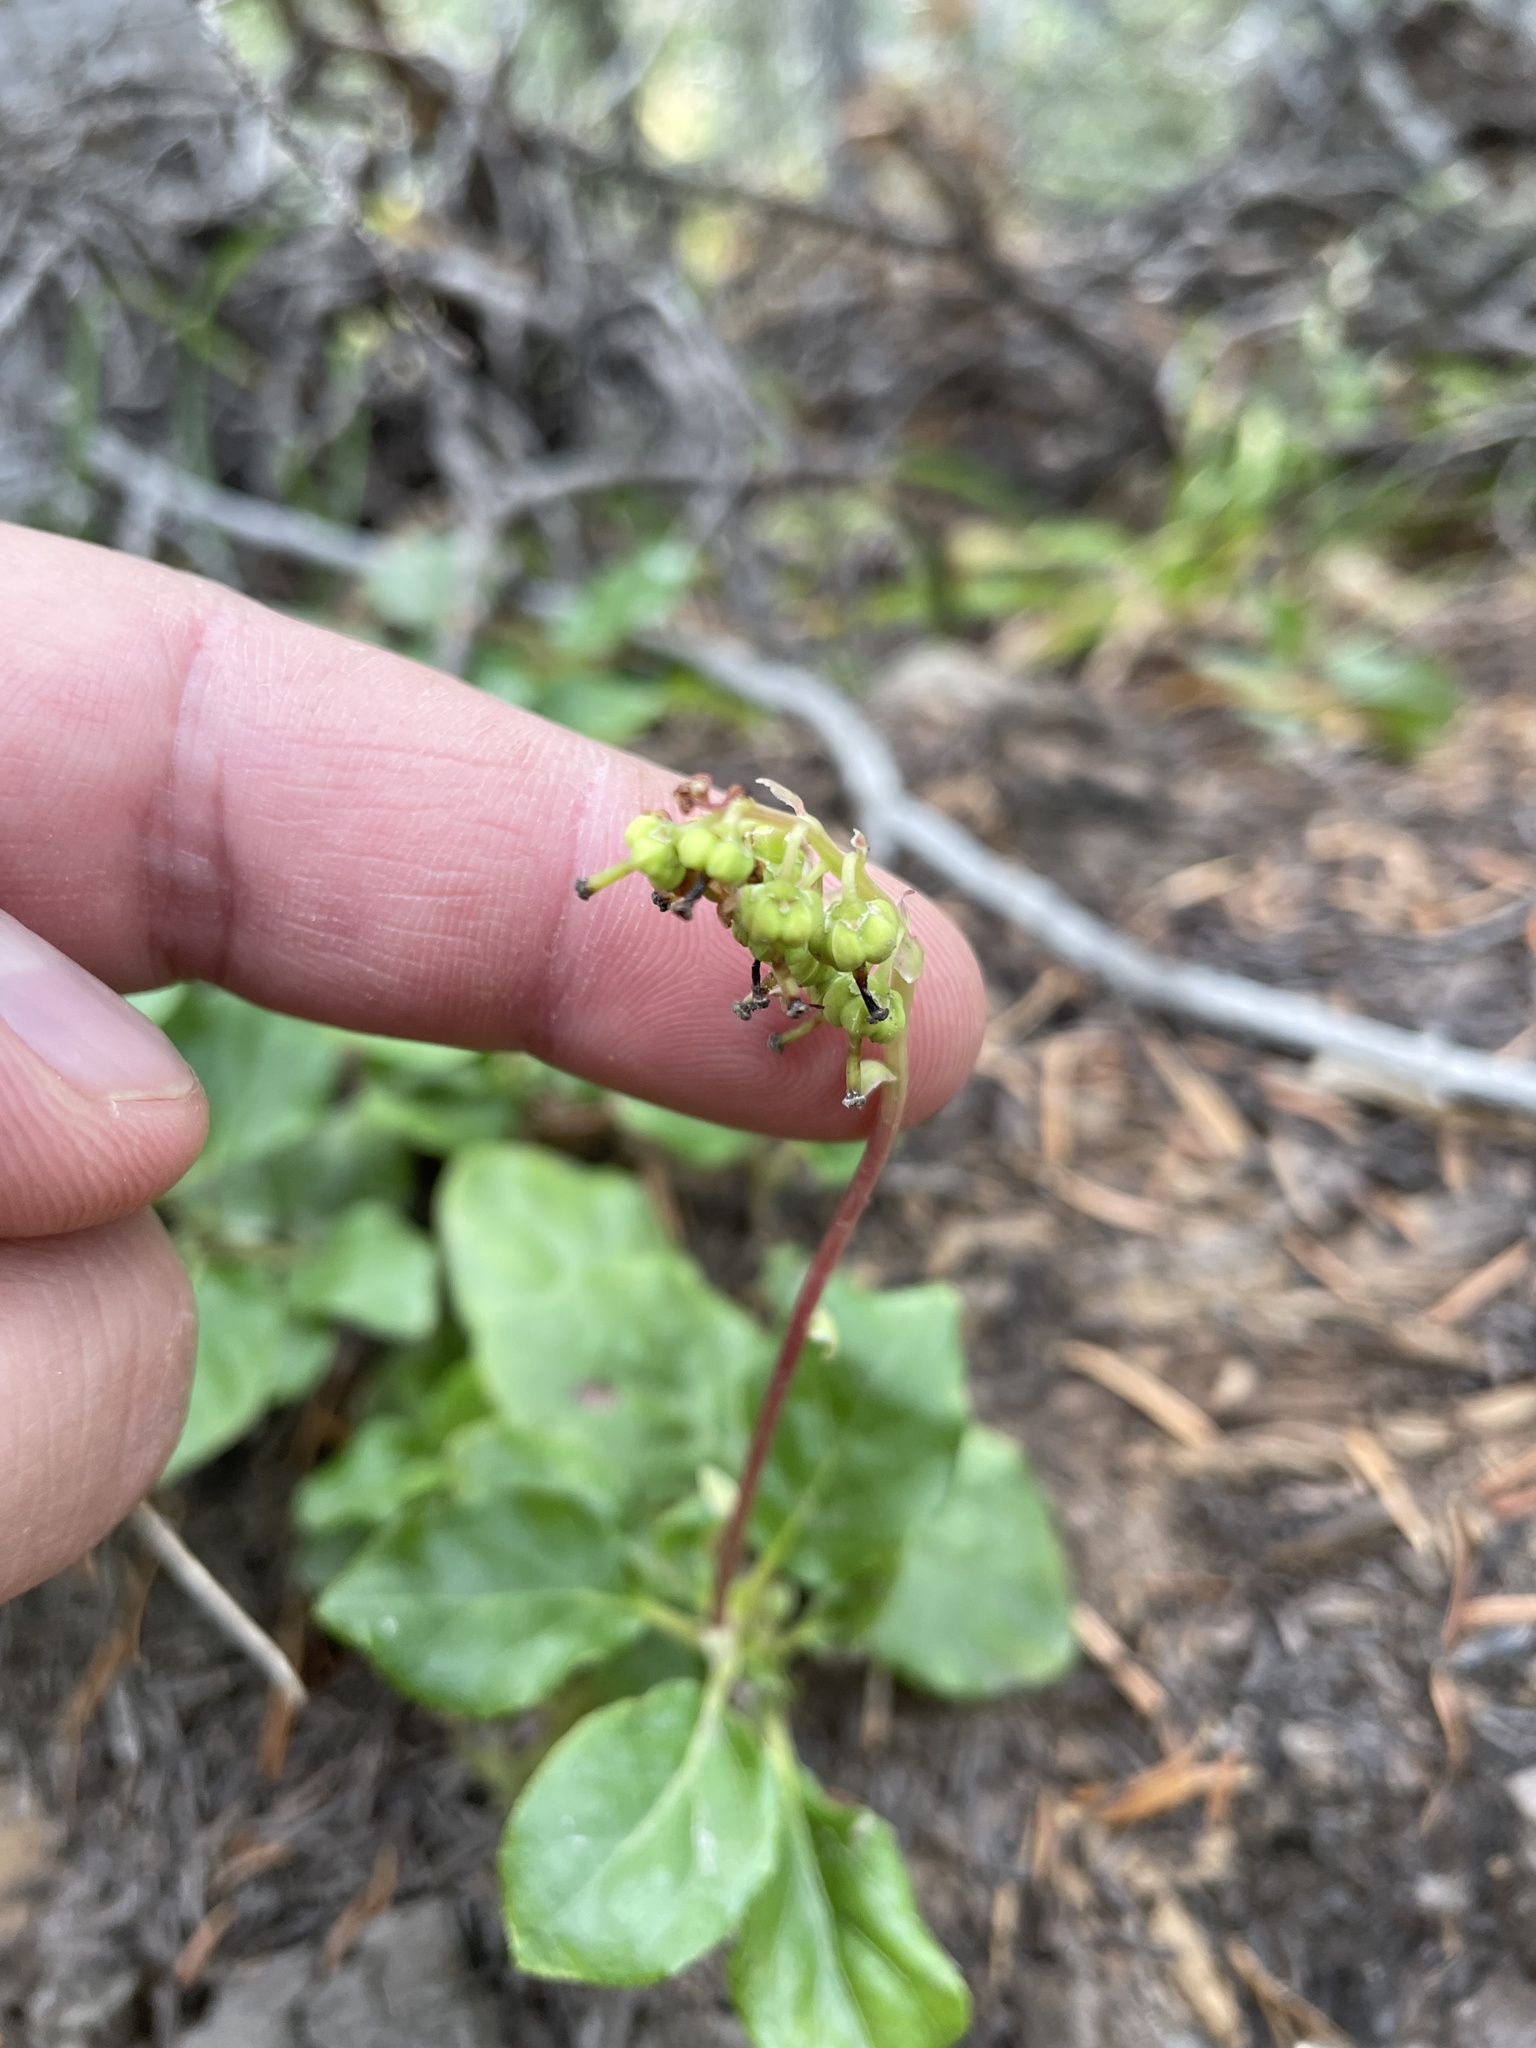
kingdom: Plantae
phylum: Tracheophyta
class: Magnoliopsida
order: Ericales
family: Ericaceae
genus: Orthilia
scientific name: Orthilia secunda
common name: One-sided orthilia
